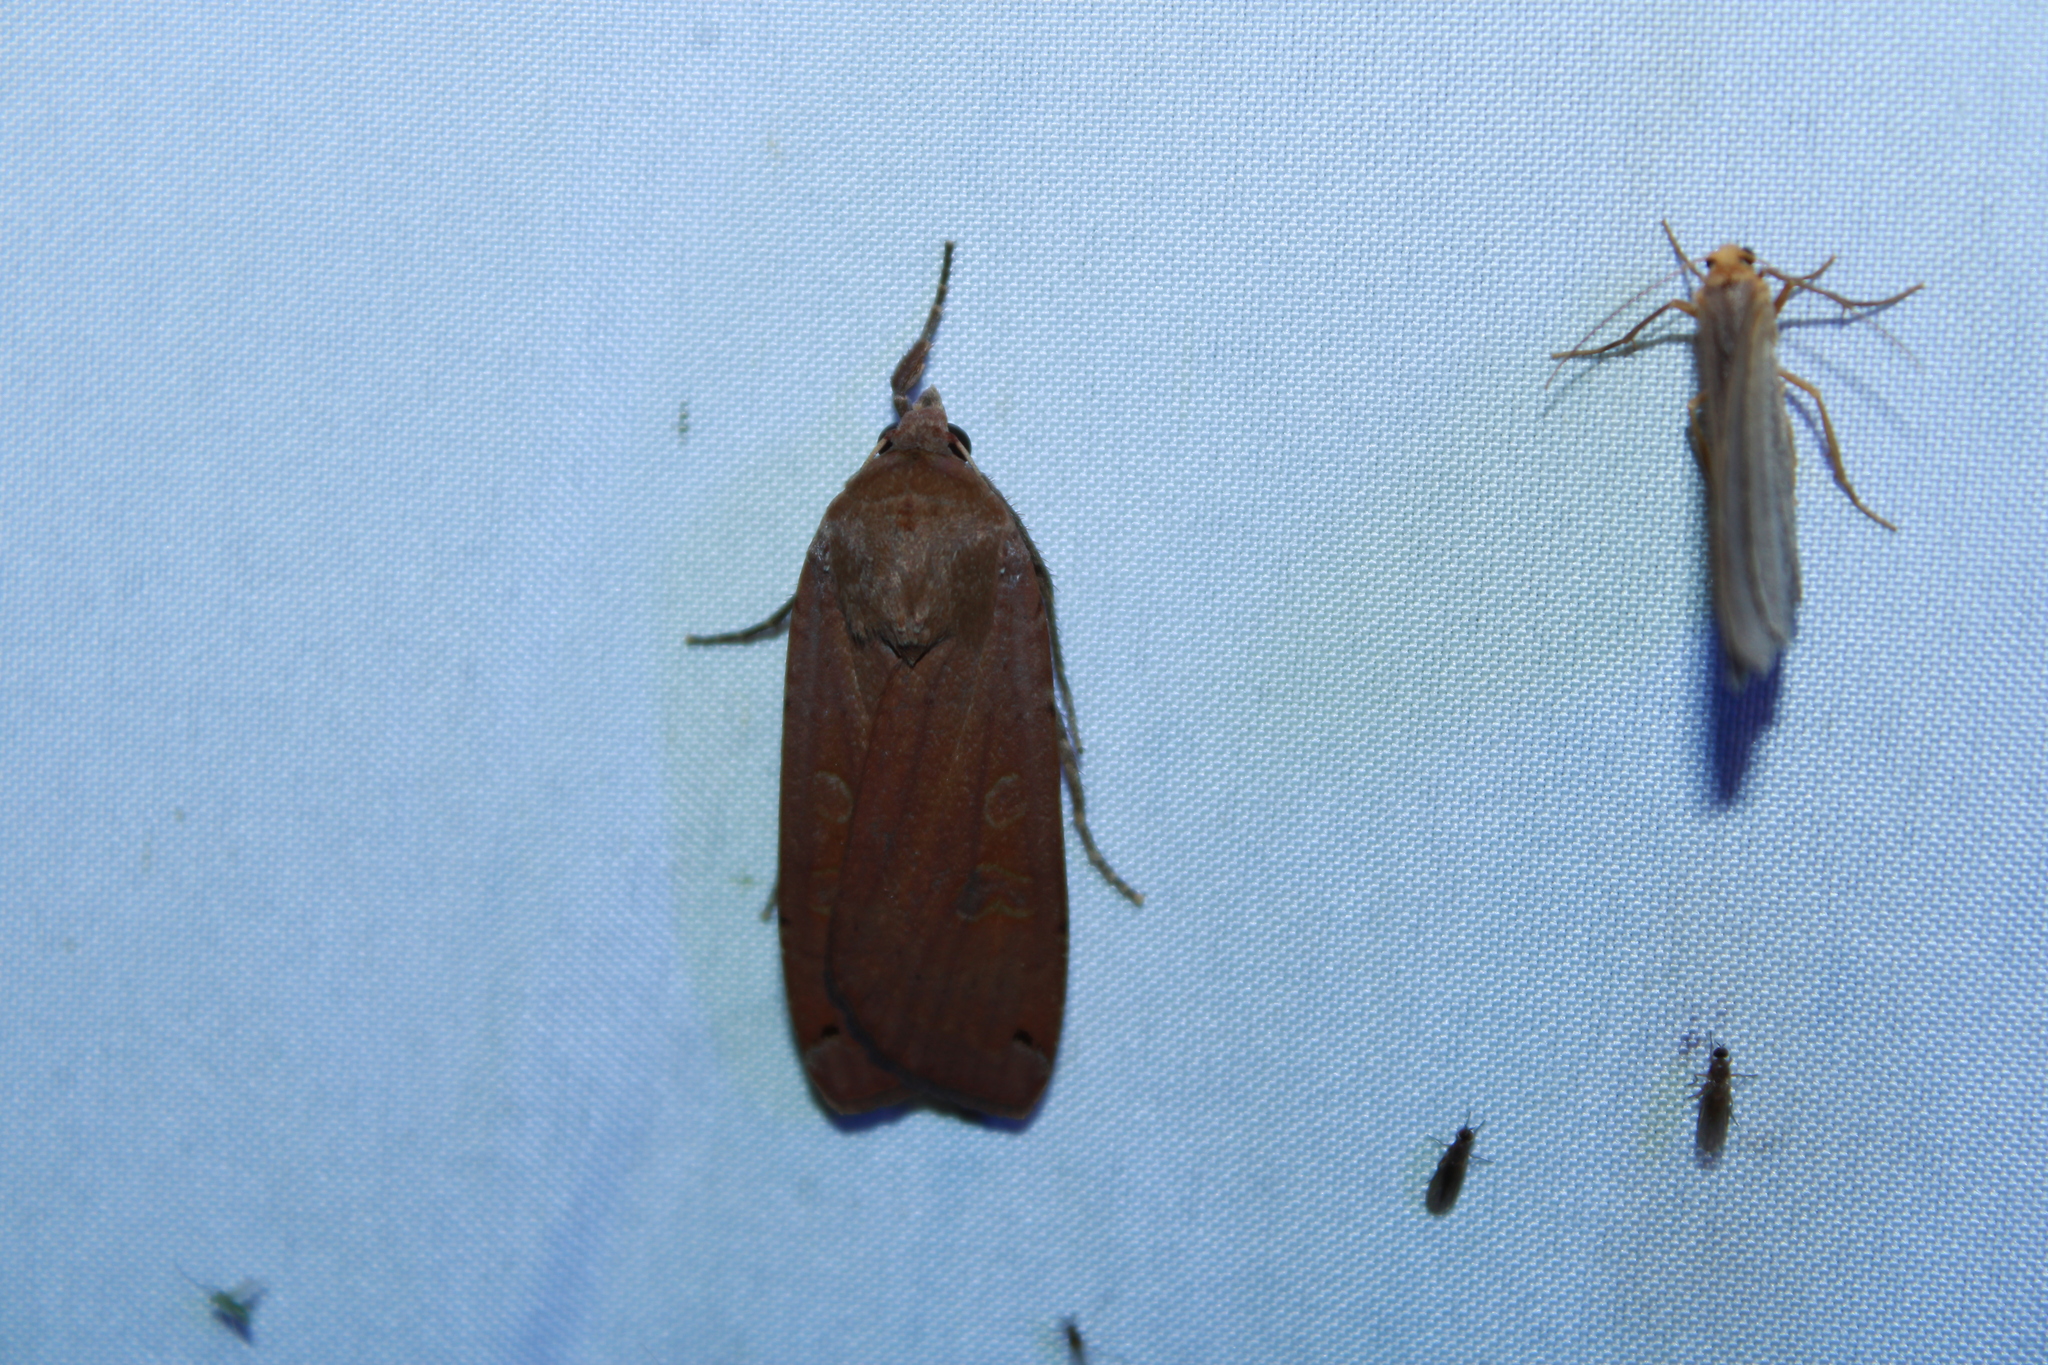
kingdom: Animalia
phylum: Arthropoda
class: Insecta
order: Lepidoptera
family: Noctuidae
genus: Noctua
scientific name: Noctua pronuba
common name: Large yellow underwing
